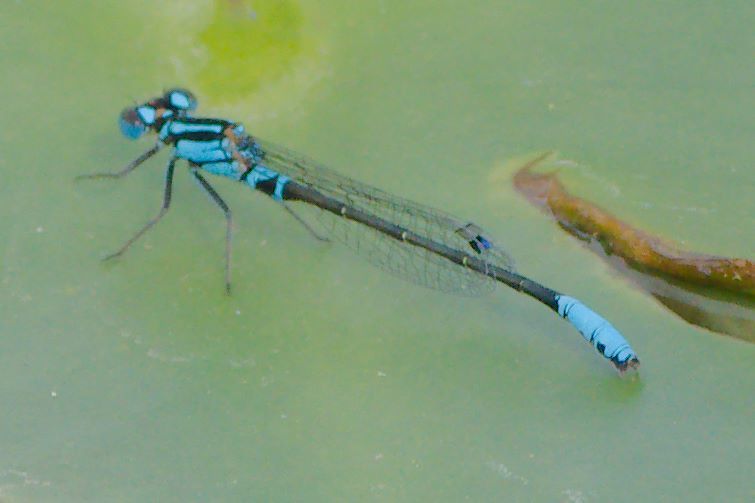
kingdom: Animalia
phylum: Arthropoda
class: Insecta
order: Odonata
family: Coenagrionidae
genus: Ischnura
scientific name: Ischnura kellicotti
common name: Lilypad forktail
